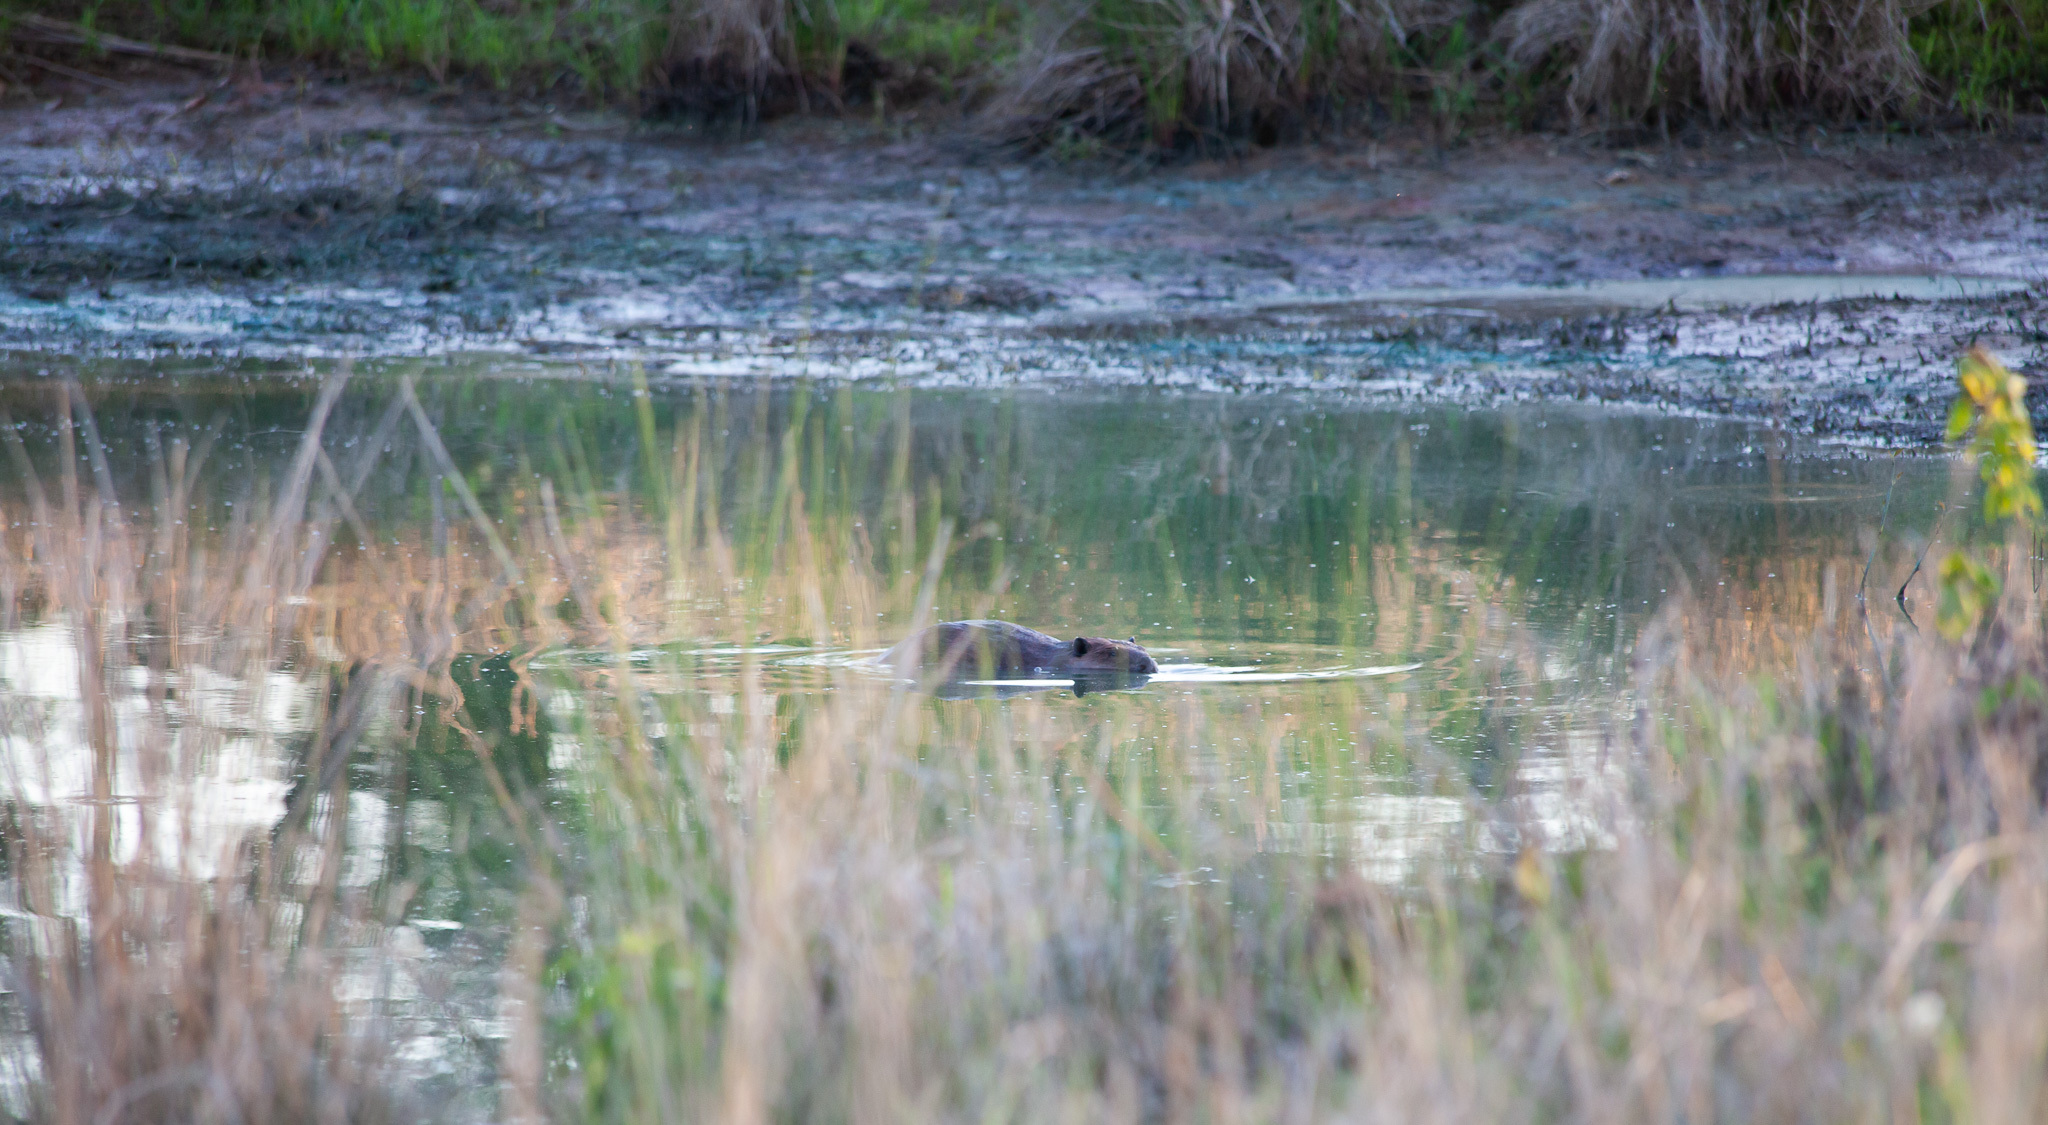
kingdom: Animalia
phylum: Chordata
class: Mammalia
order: Rodentia
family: Castoridae
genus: Castor
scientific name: Castor canadensis
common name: American beaver
